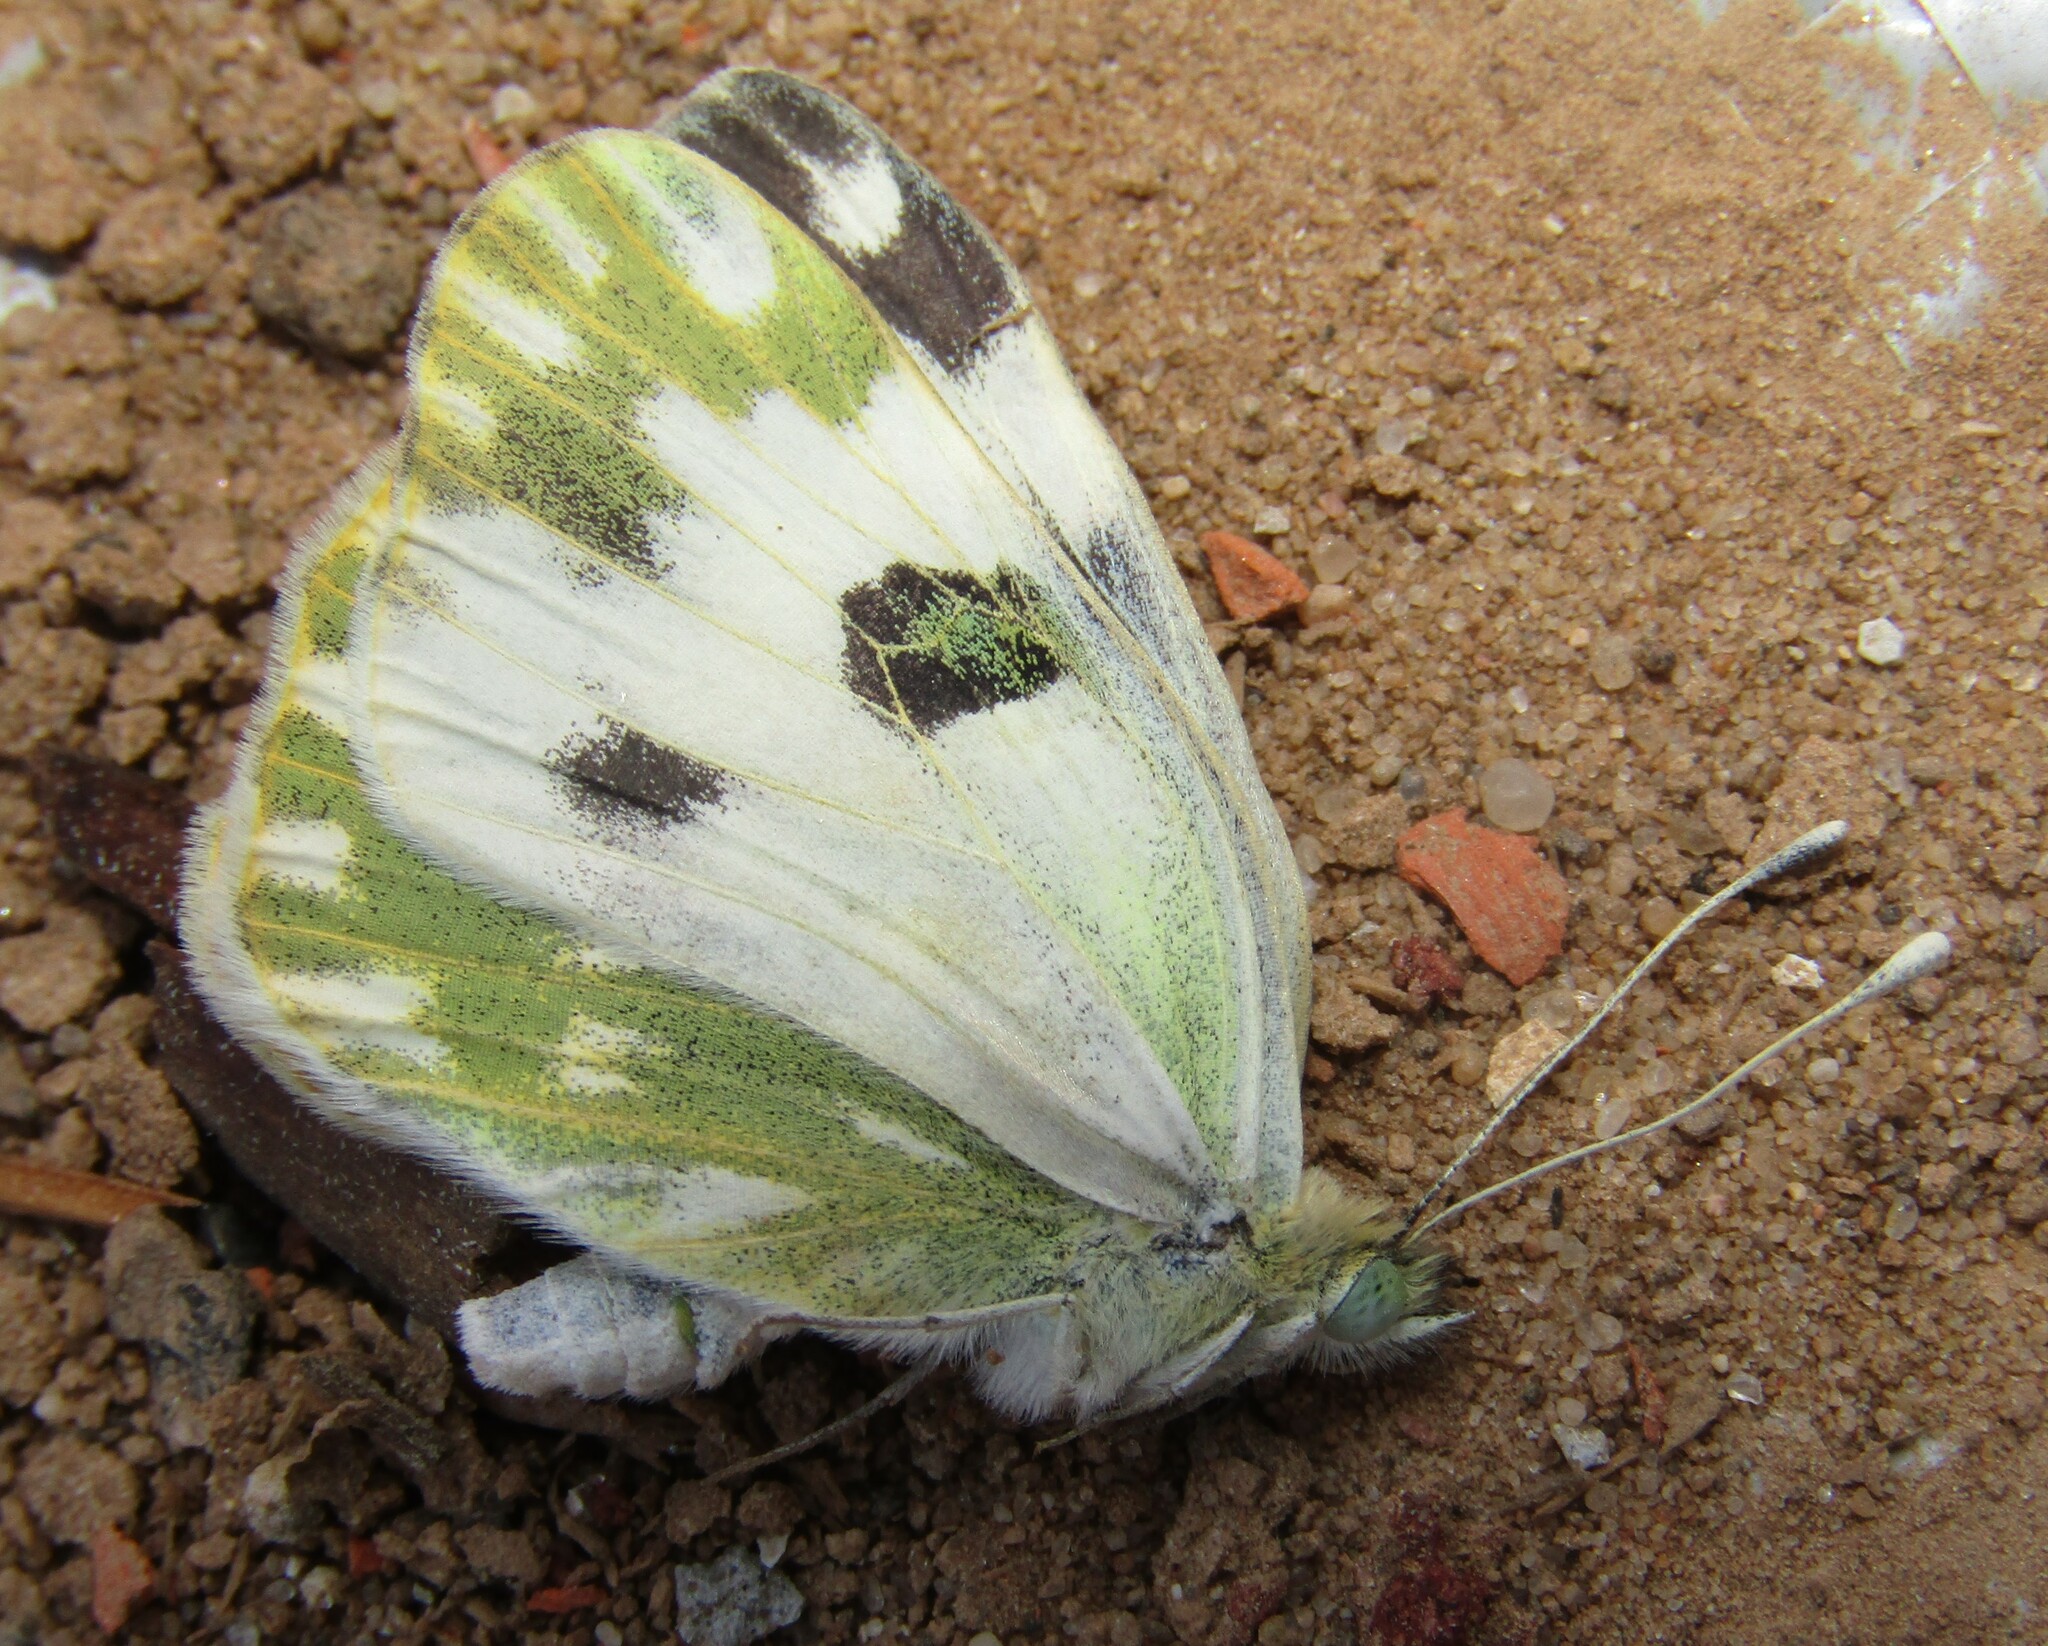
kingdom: Animalia
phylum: Arthropoda
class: Insecta
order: Lepidoptera
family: Pieridae
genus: Pontia
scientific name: Pontia edusa
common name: Eastern bath white
